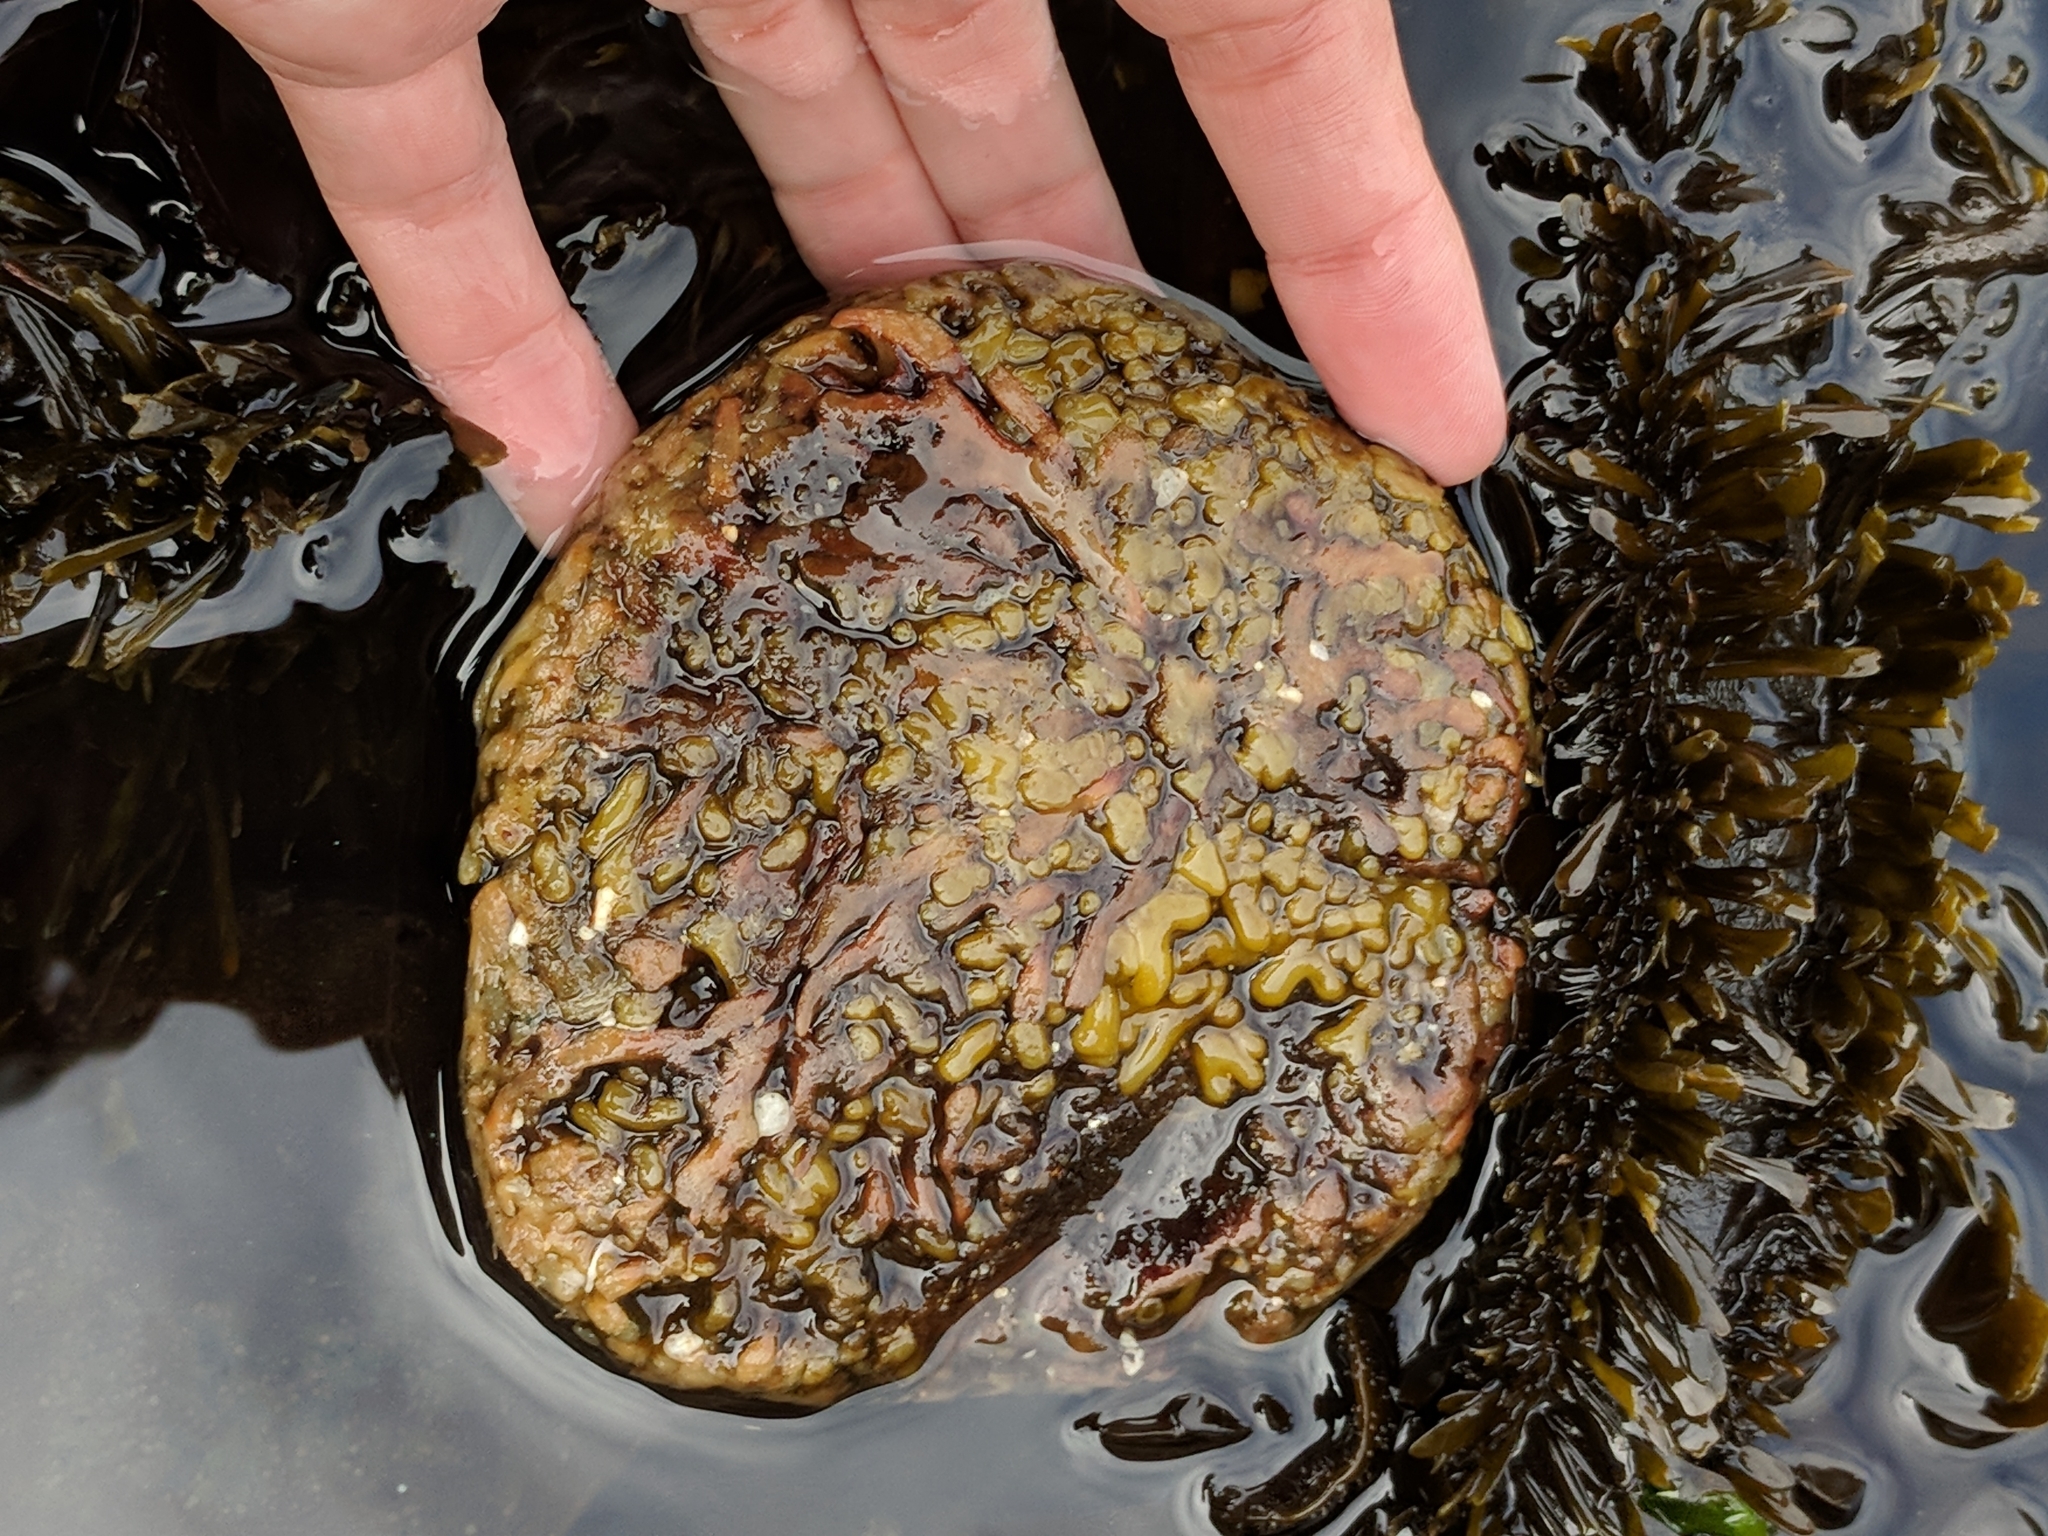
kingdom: Chromista
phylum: Ochrophyta
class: Phaeophyceae
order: Laminariales
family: Lessoniaceae
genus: Egregia
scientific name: Egregia menziesii
